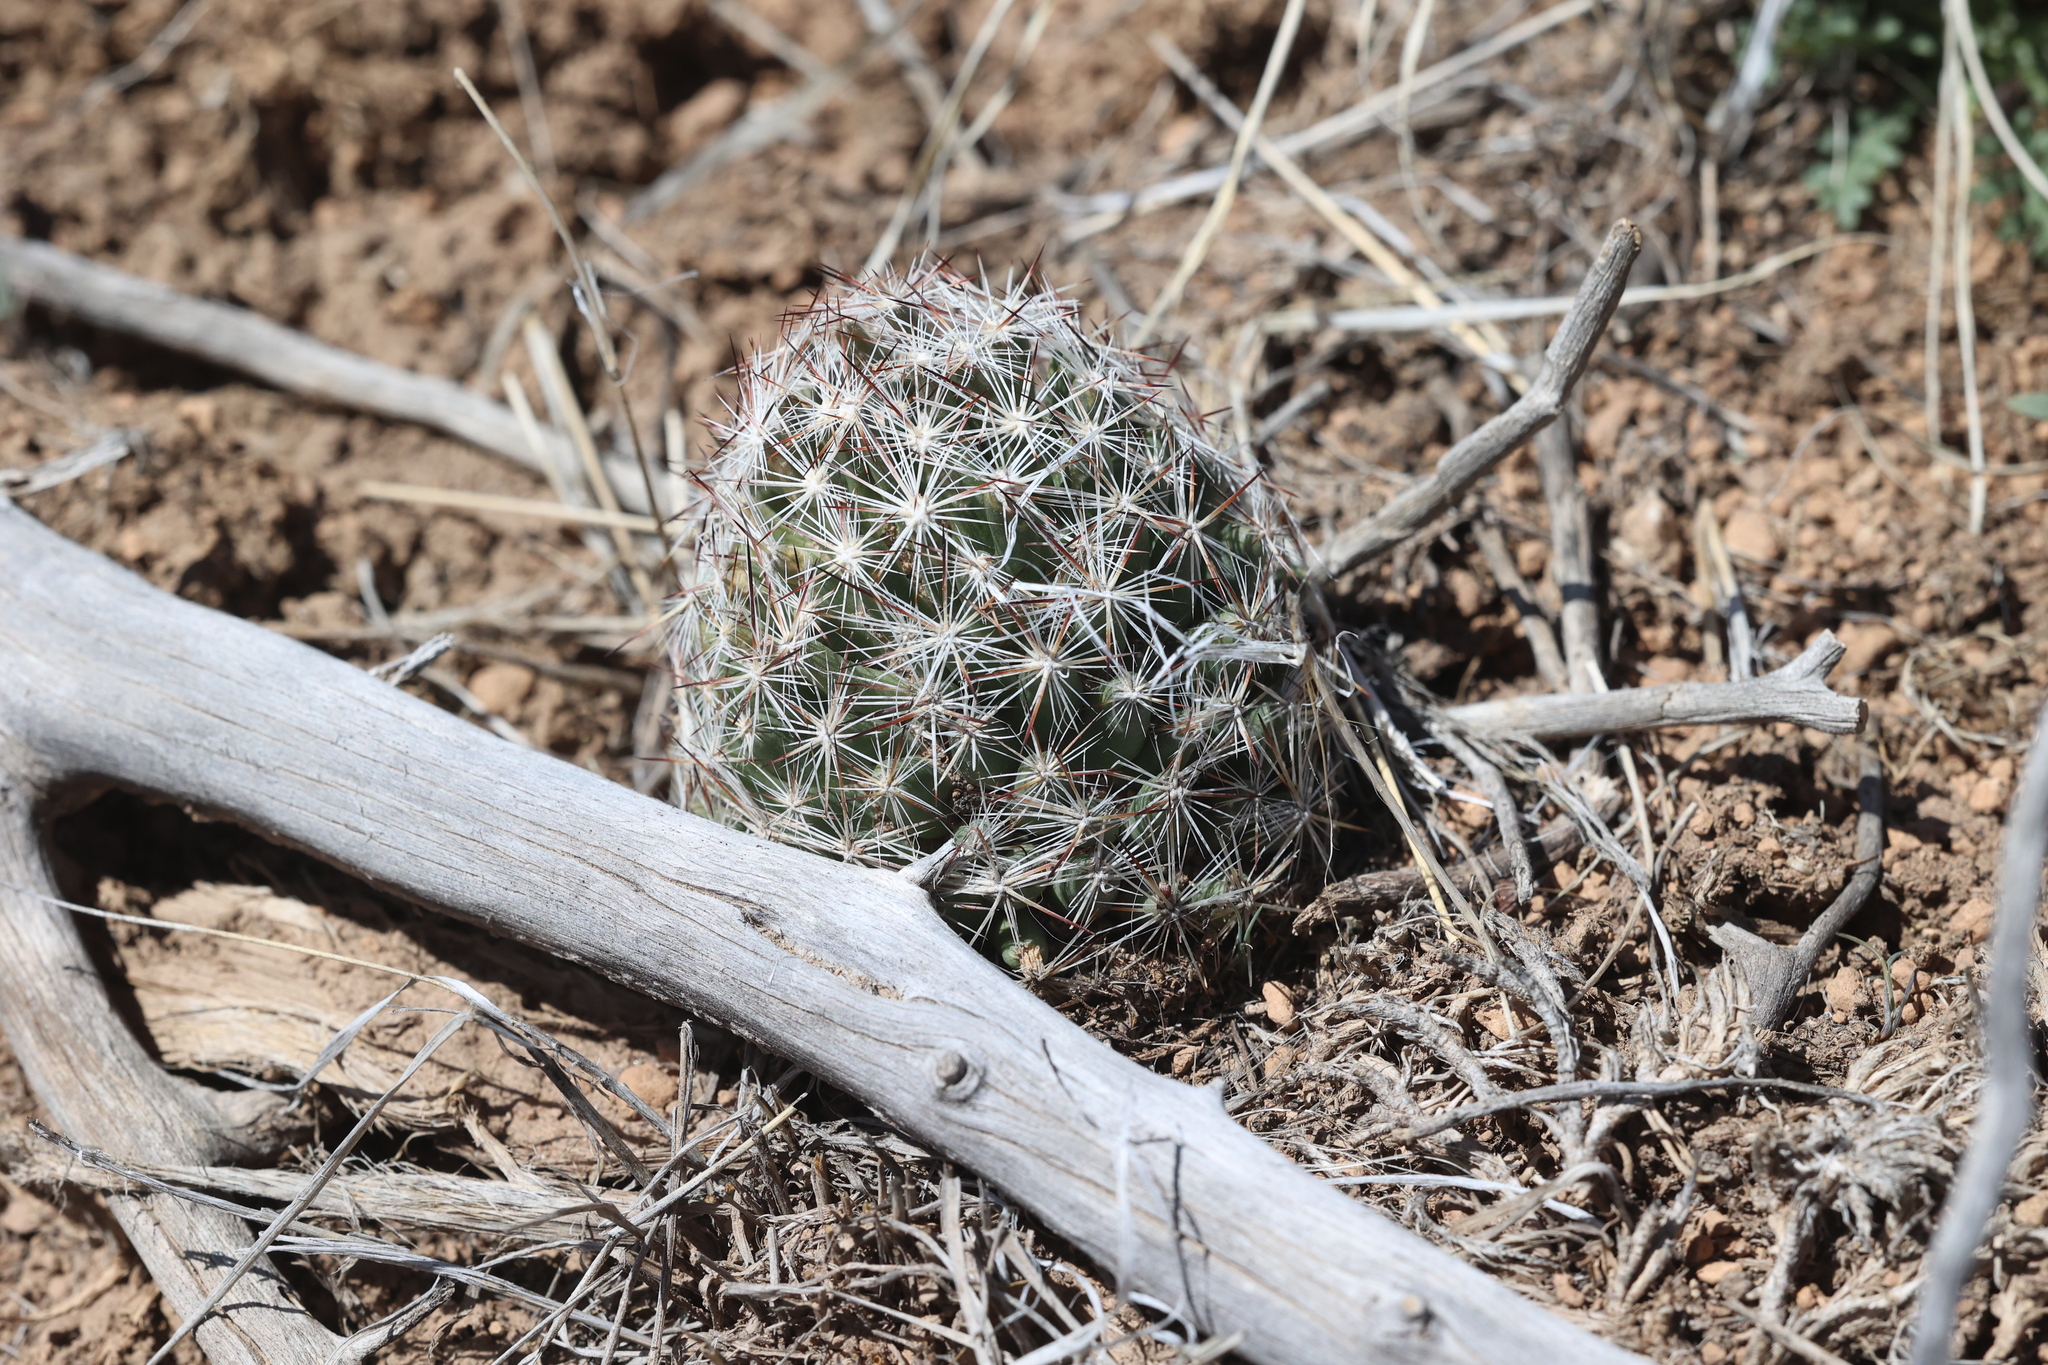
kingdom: Plantae
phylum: Tracheophyta
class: Magnoliopsida
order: Caryophyllales
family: Cactaceae
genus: Pelecyphora
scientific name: Pelecyphora vivipara
